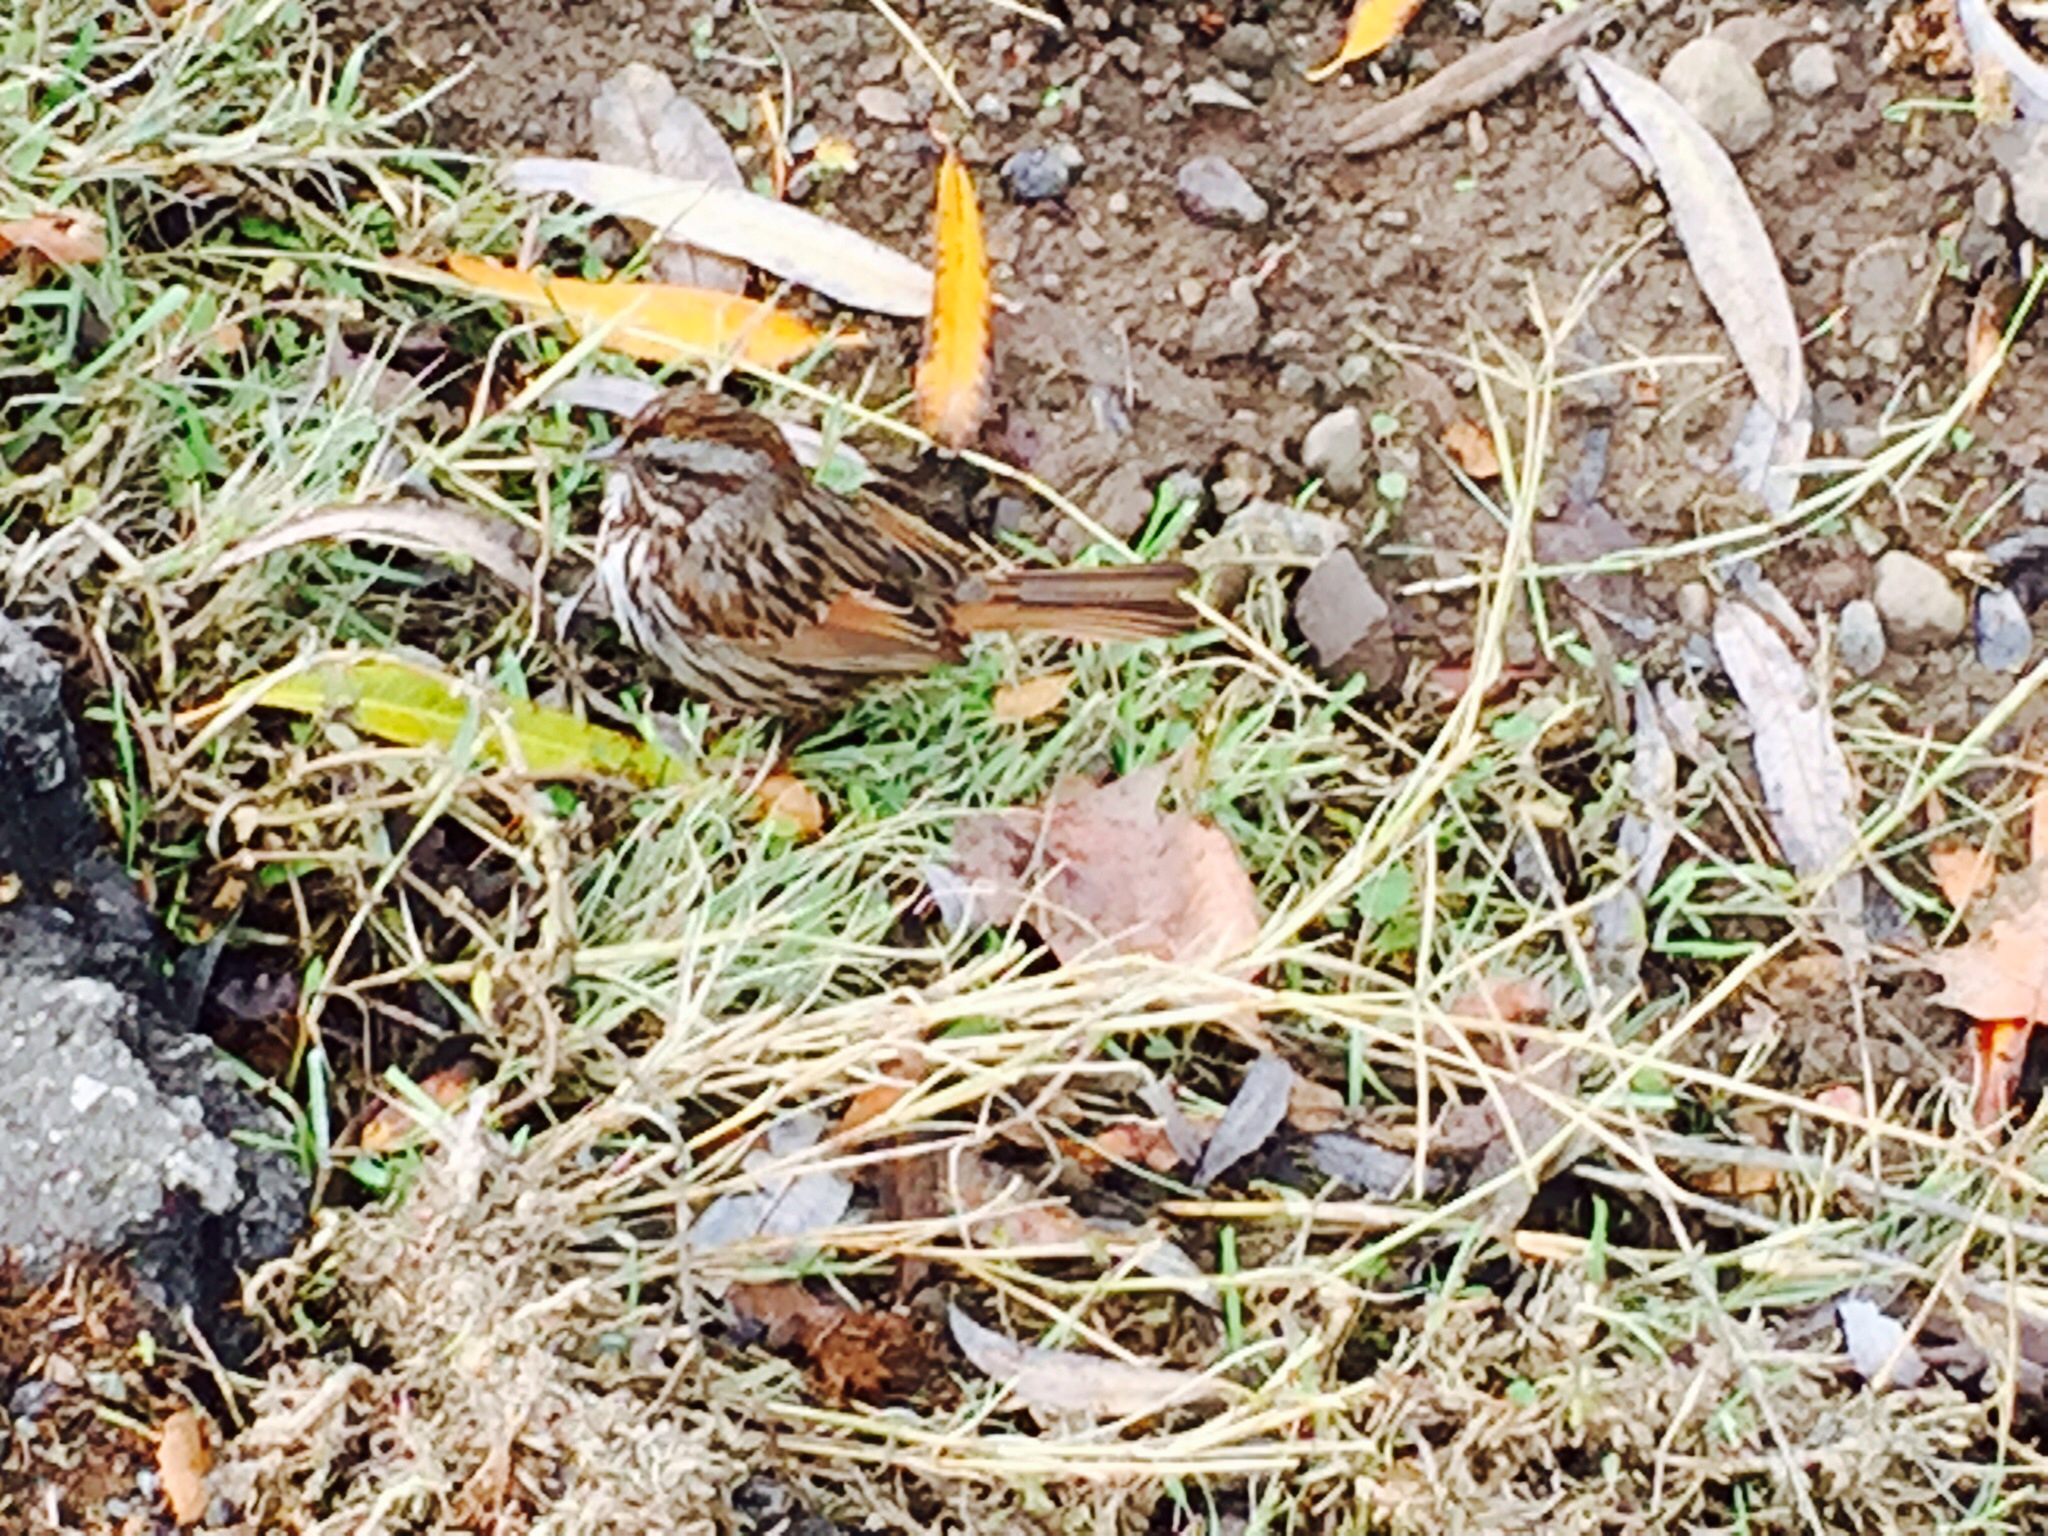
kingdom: Animalia
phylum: Chordata
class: Aves
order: Passeriformes
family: Passerellidae
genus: Melospiza
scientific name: Melospiza melodia
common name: Song sparrow
